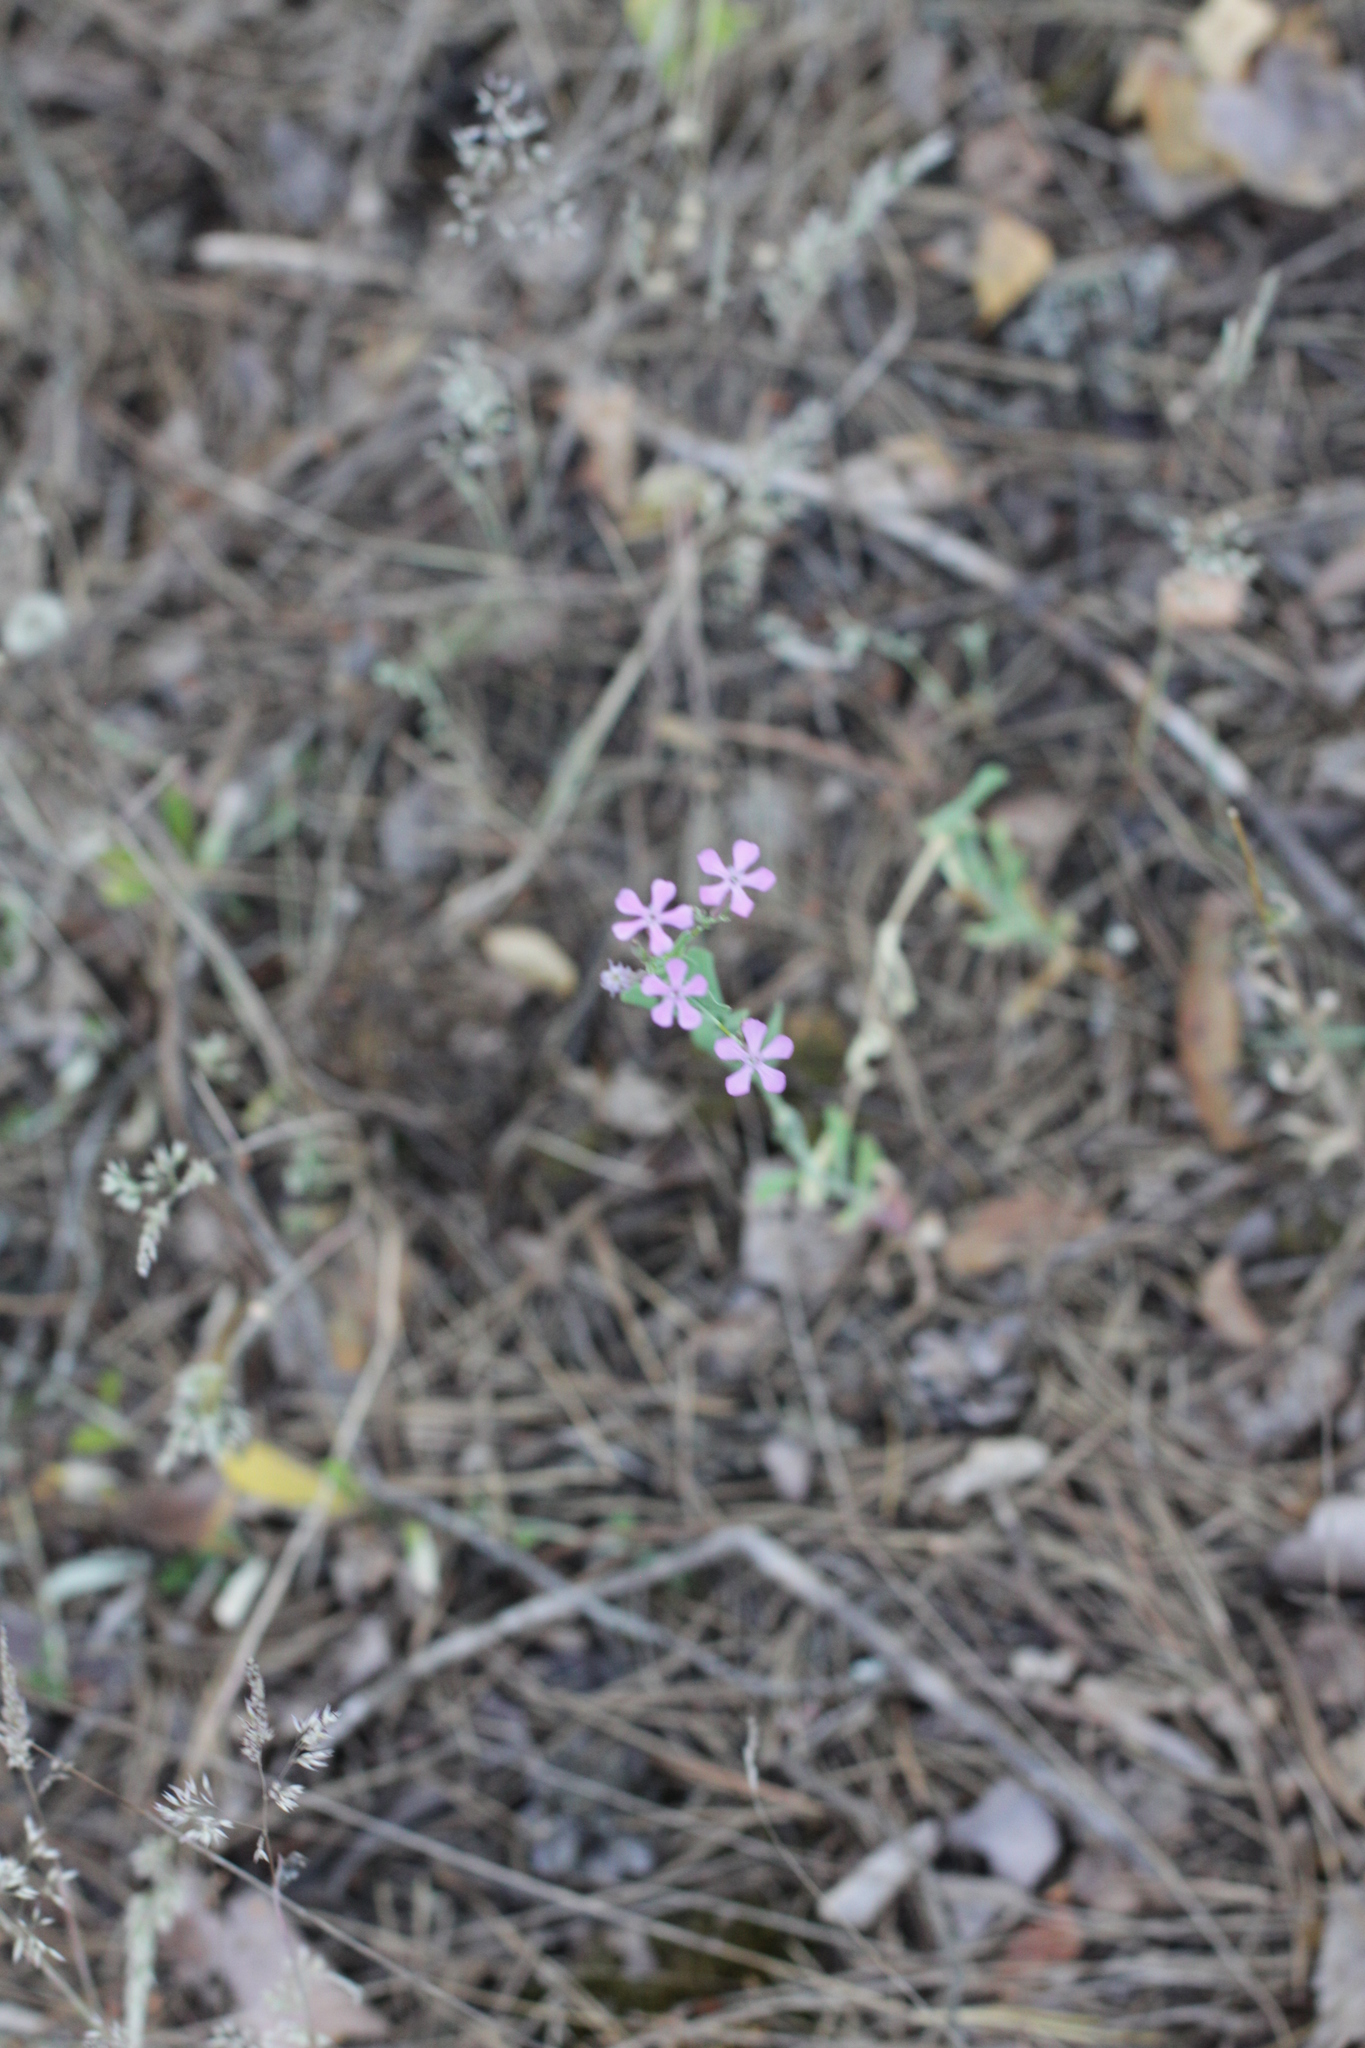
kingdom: Plantae
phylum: Tracheophyta
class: Magnoliopsida
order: Caryophyllales
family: Caryophyllaceae
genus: Atocion
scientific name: Atocion armeria
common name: Sweet william catchfly
